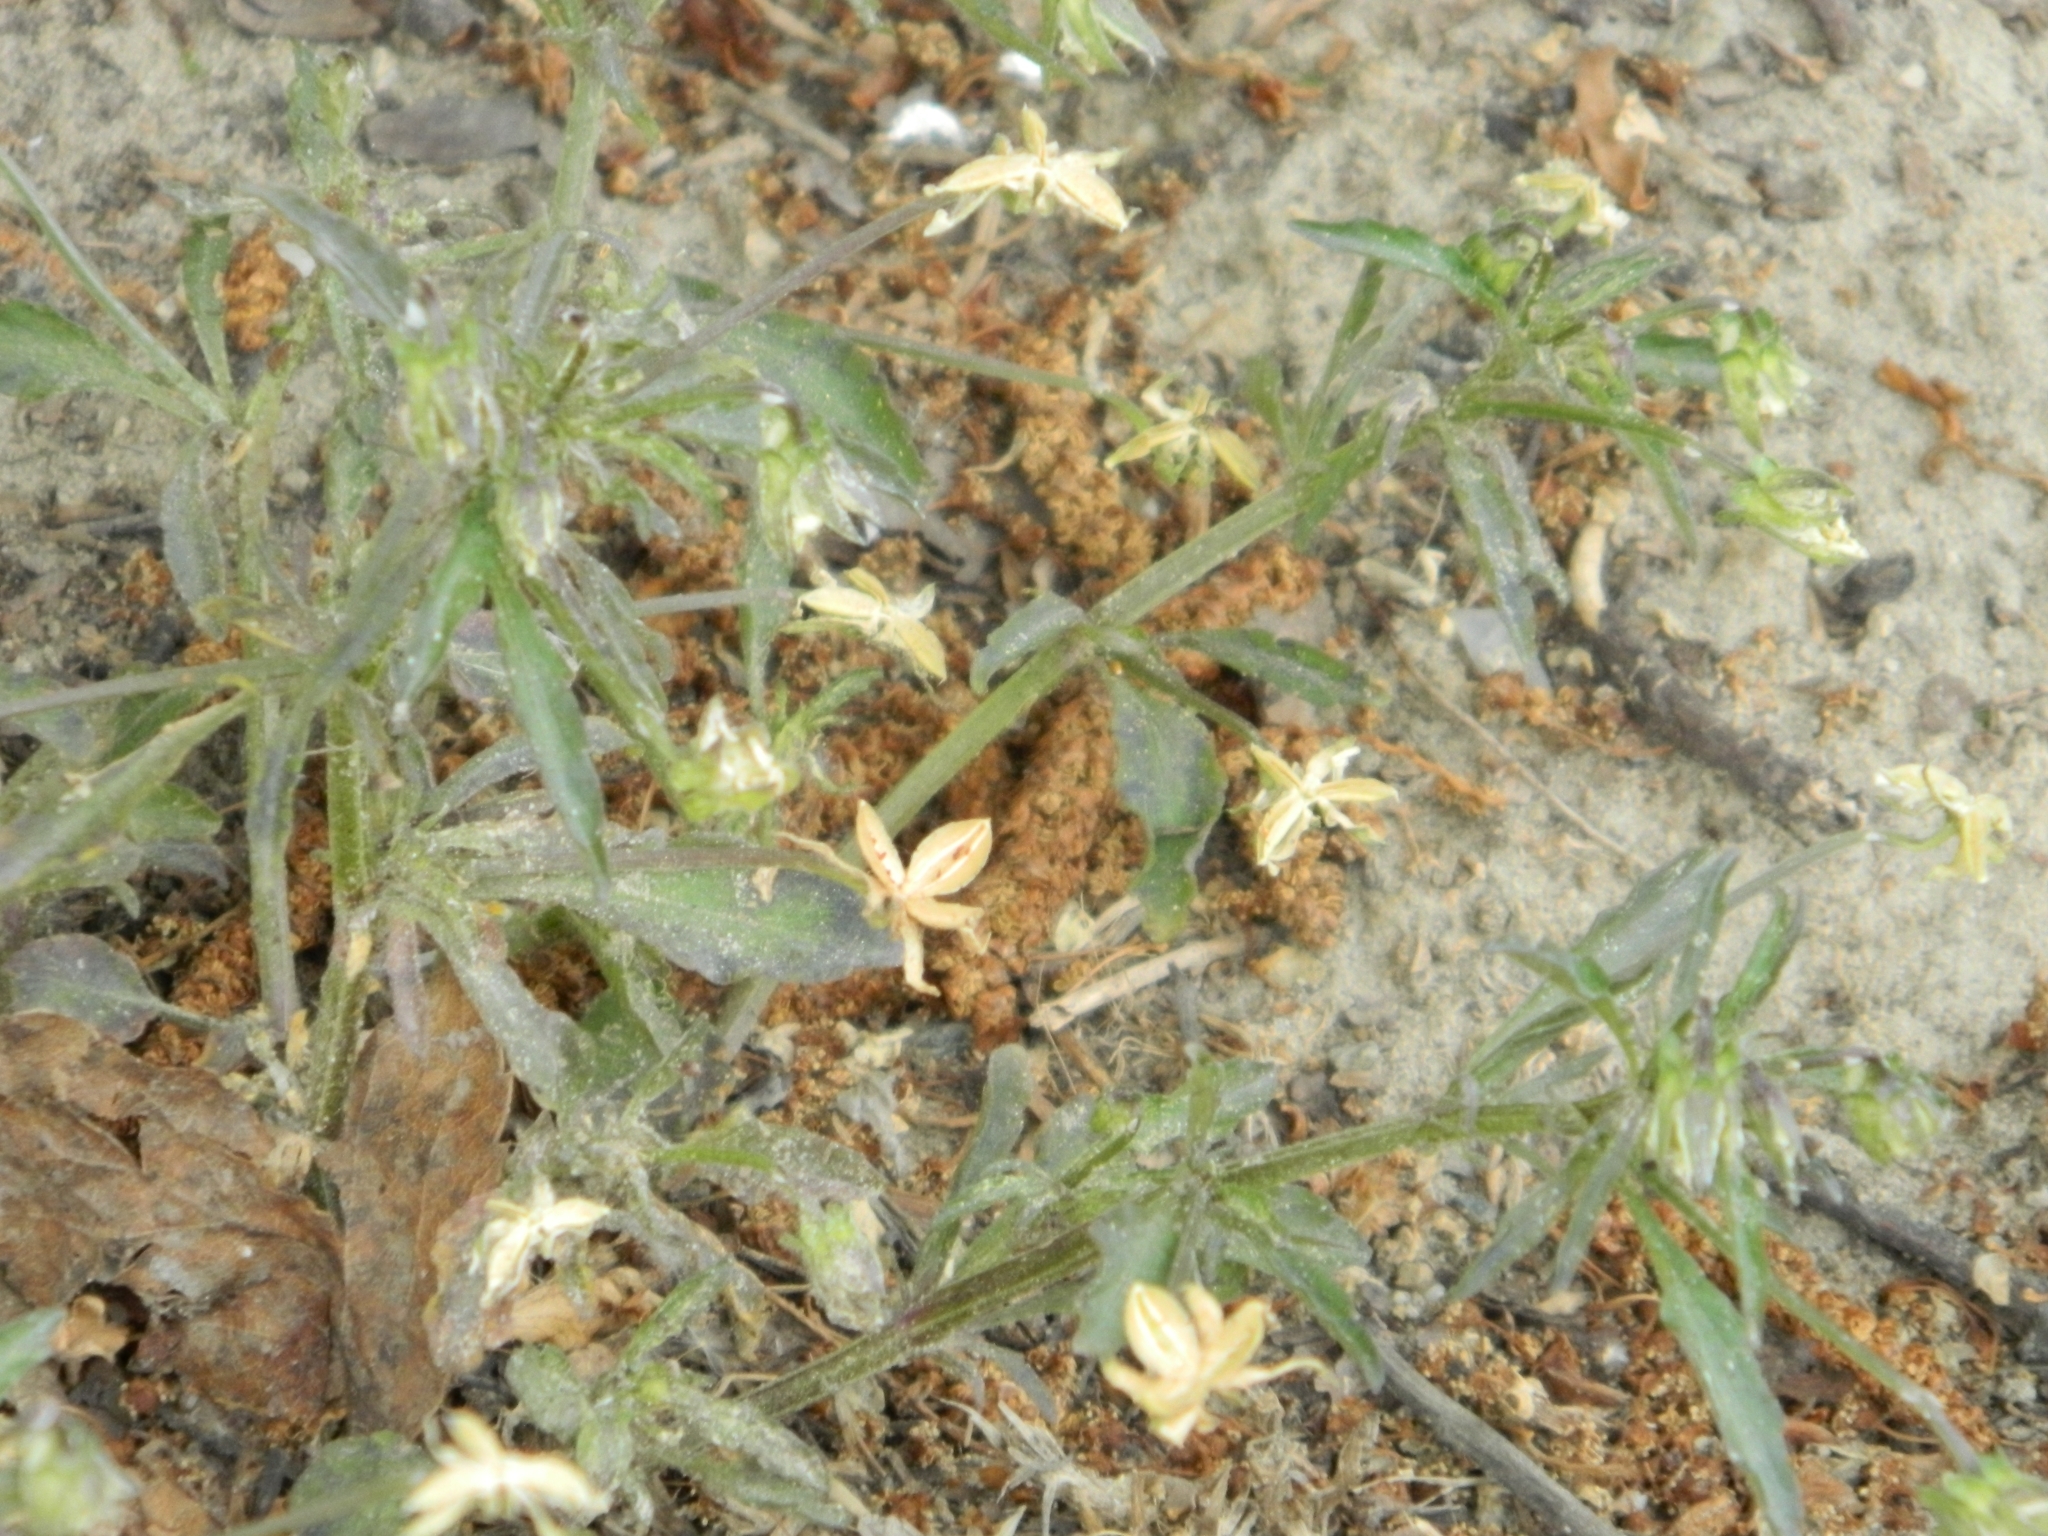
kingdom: Plantae
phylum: Tracheophyta
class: Magnoliopsida
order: Malpighiales
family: Violaceae
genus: Viola
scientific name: Viola arvensis
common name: Field pansy
